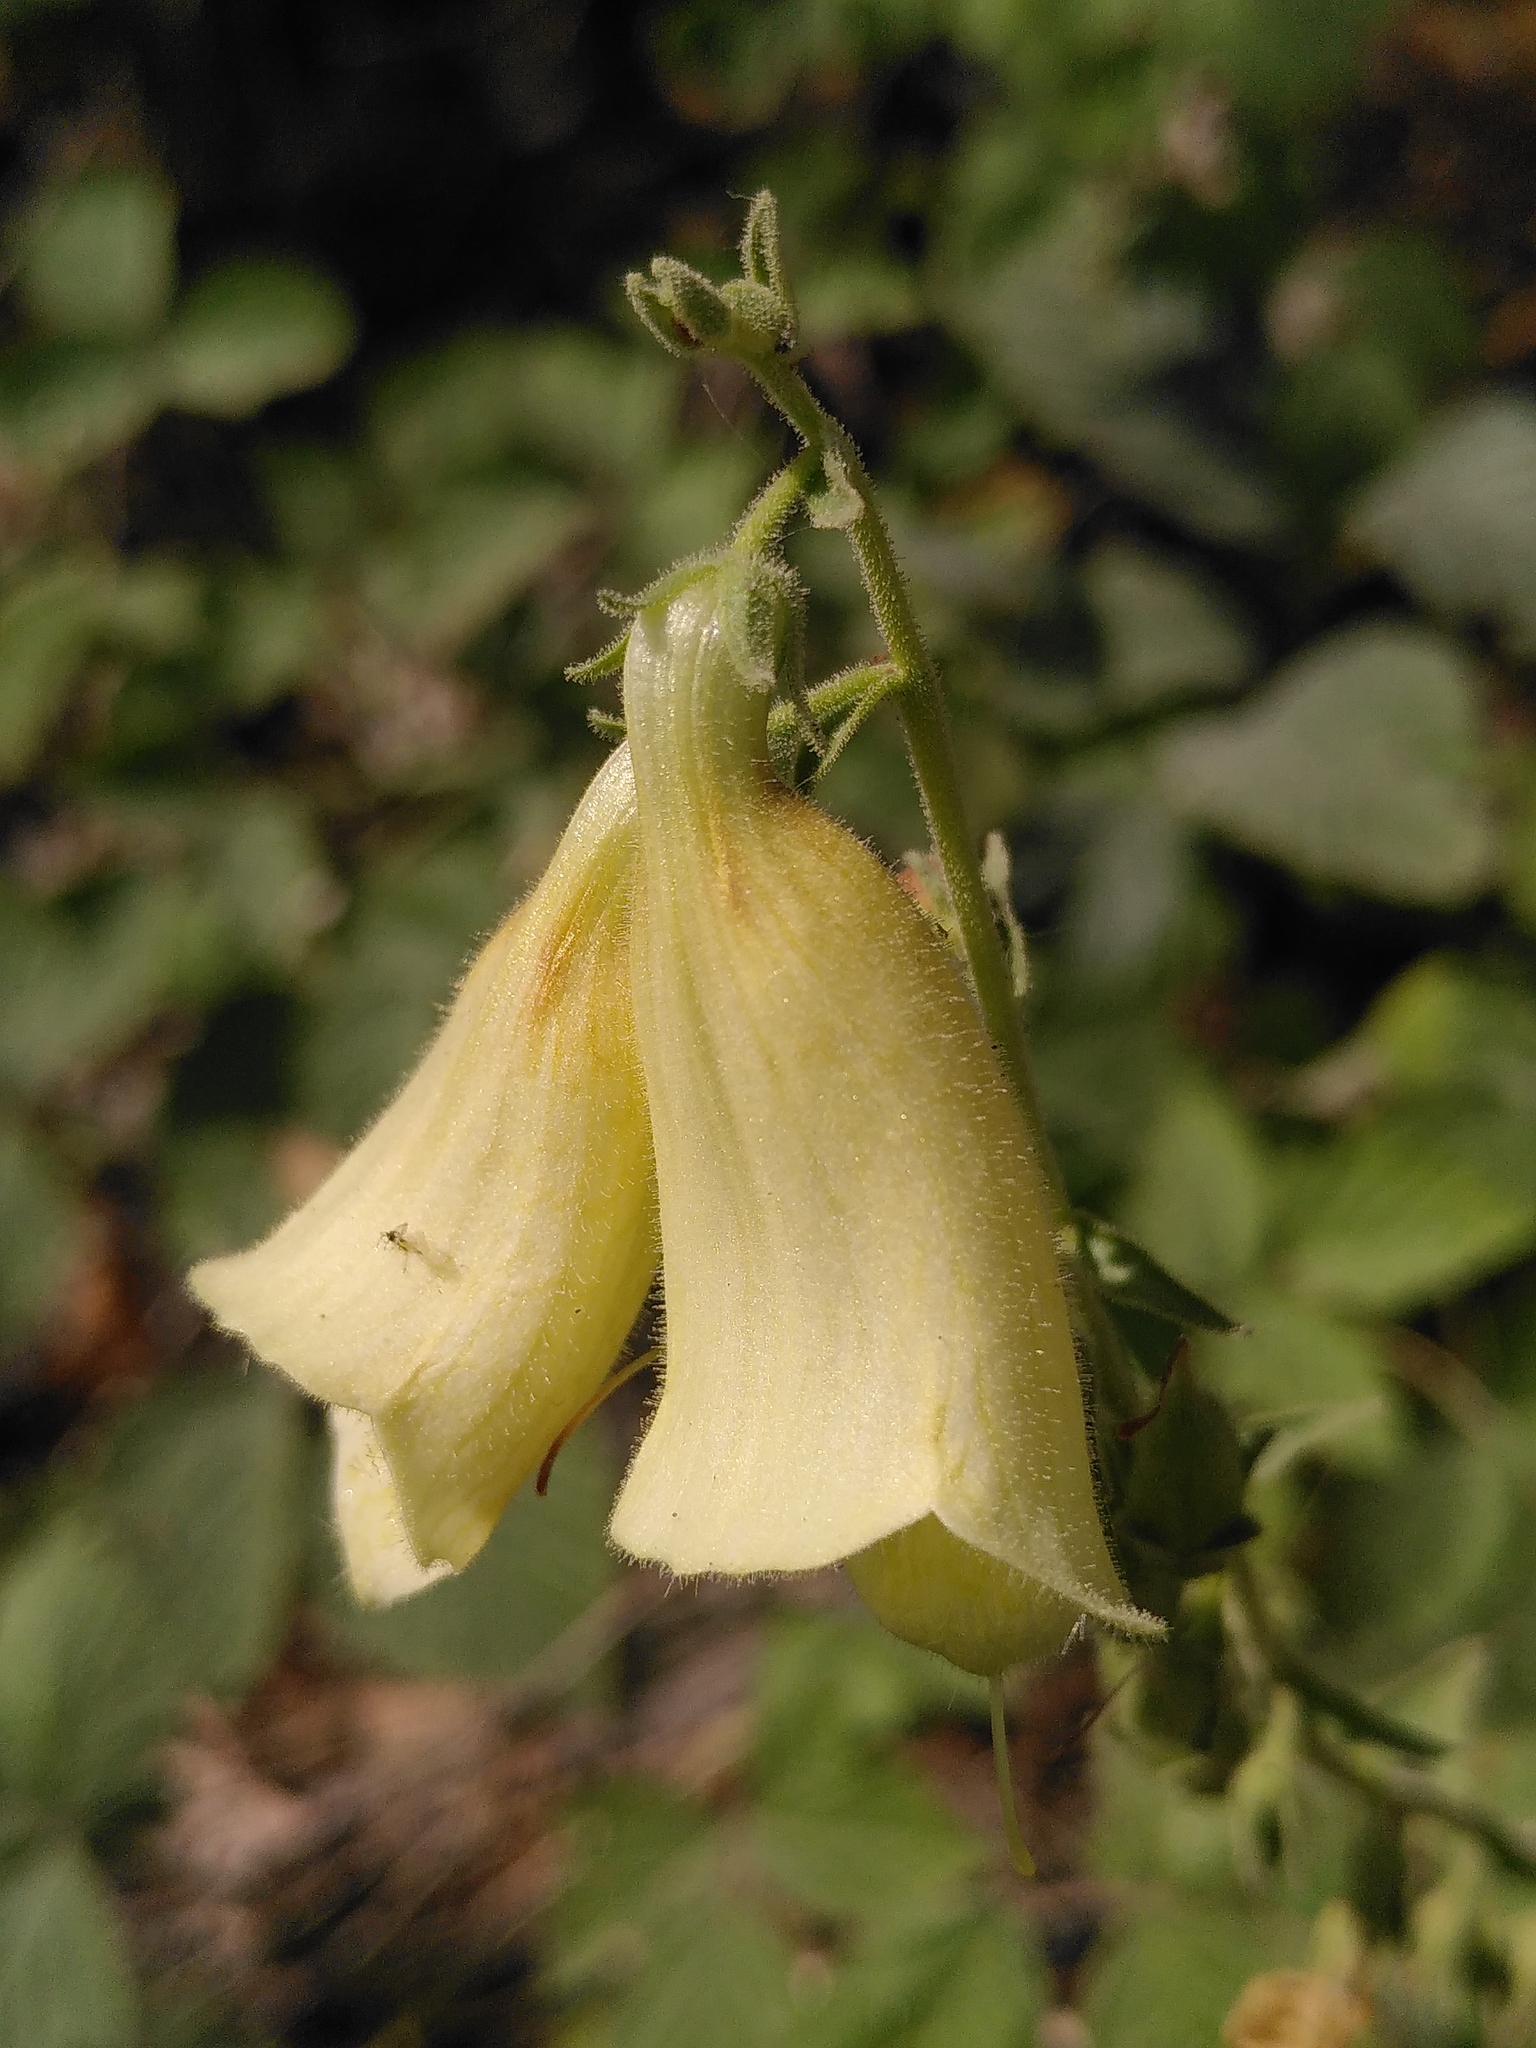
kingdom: Plantae
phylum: Tracheophyta
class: Magnoliopsida
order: Lamiales
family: Plantaginaceae
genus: Digitalis
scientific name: Digitalis grandiflora
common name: Yellow foxglove
